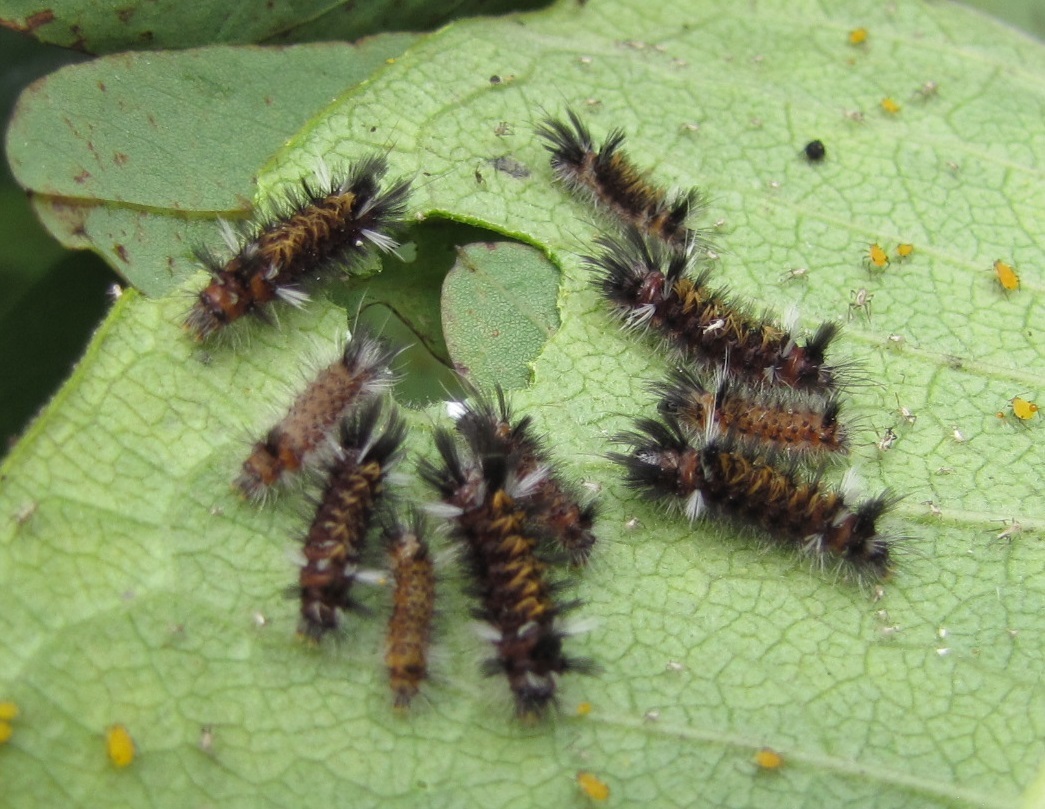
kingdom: Animalia
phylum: Arthropoda
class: Insecta
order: Lepidoptera
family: Erebidae
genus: Euchaetes
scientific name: Euchaetes egle
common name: Milkweed tussock moth
